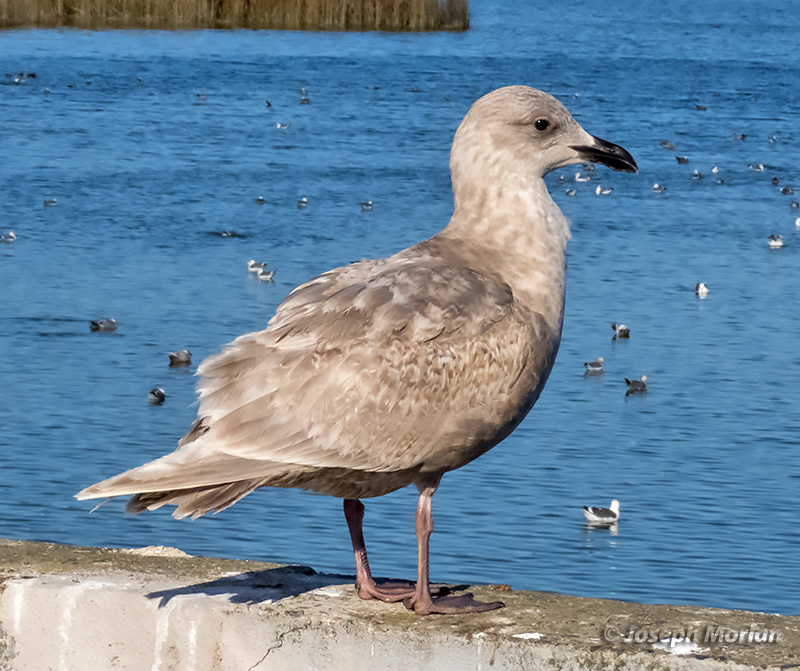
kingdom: Animalia
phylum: Chordata
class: Aves
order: Charadriiformes
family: Laridae
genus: Larus
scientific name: Larus glaucescens
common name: Glaucous-winged gull
